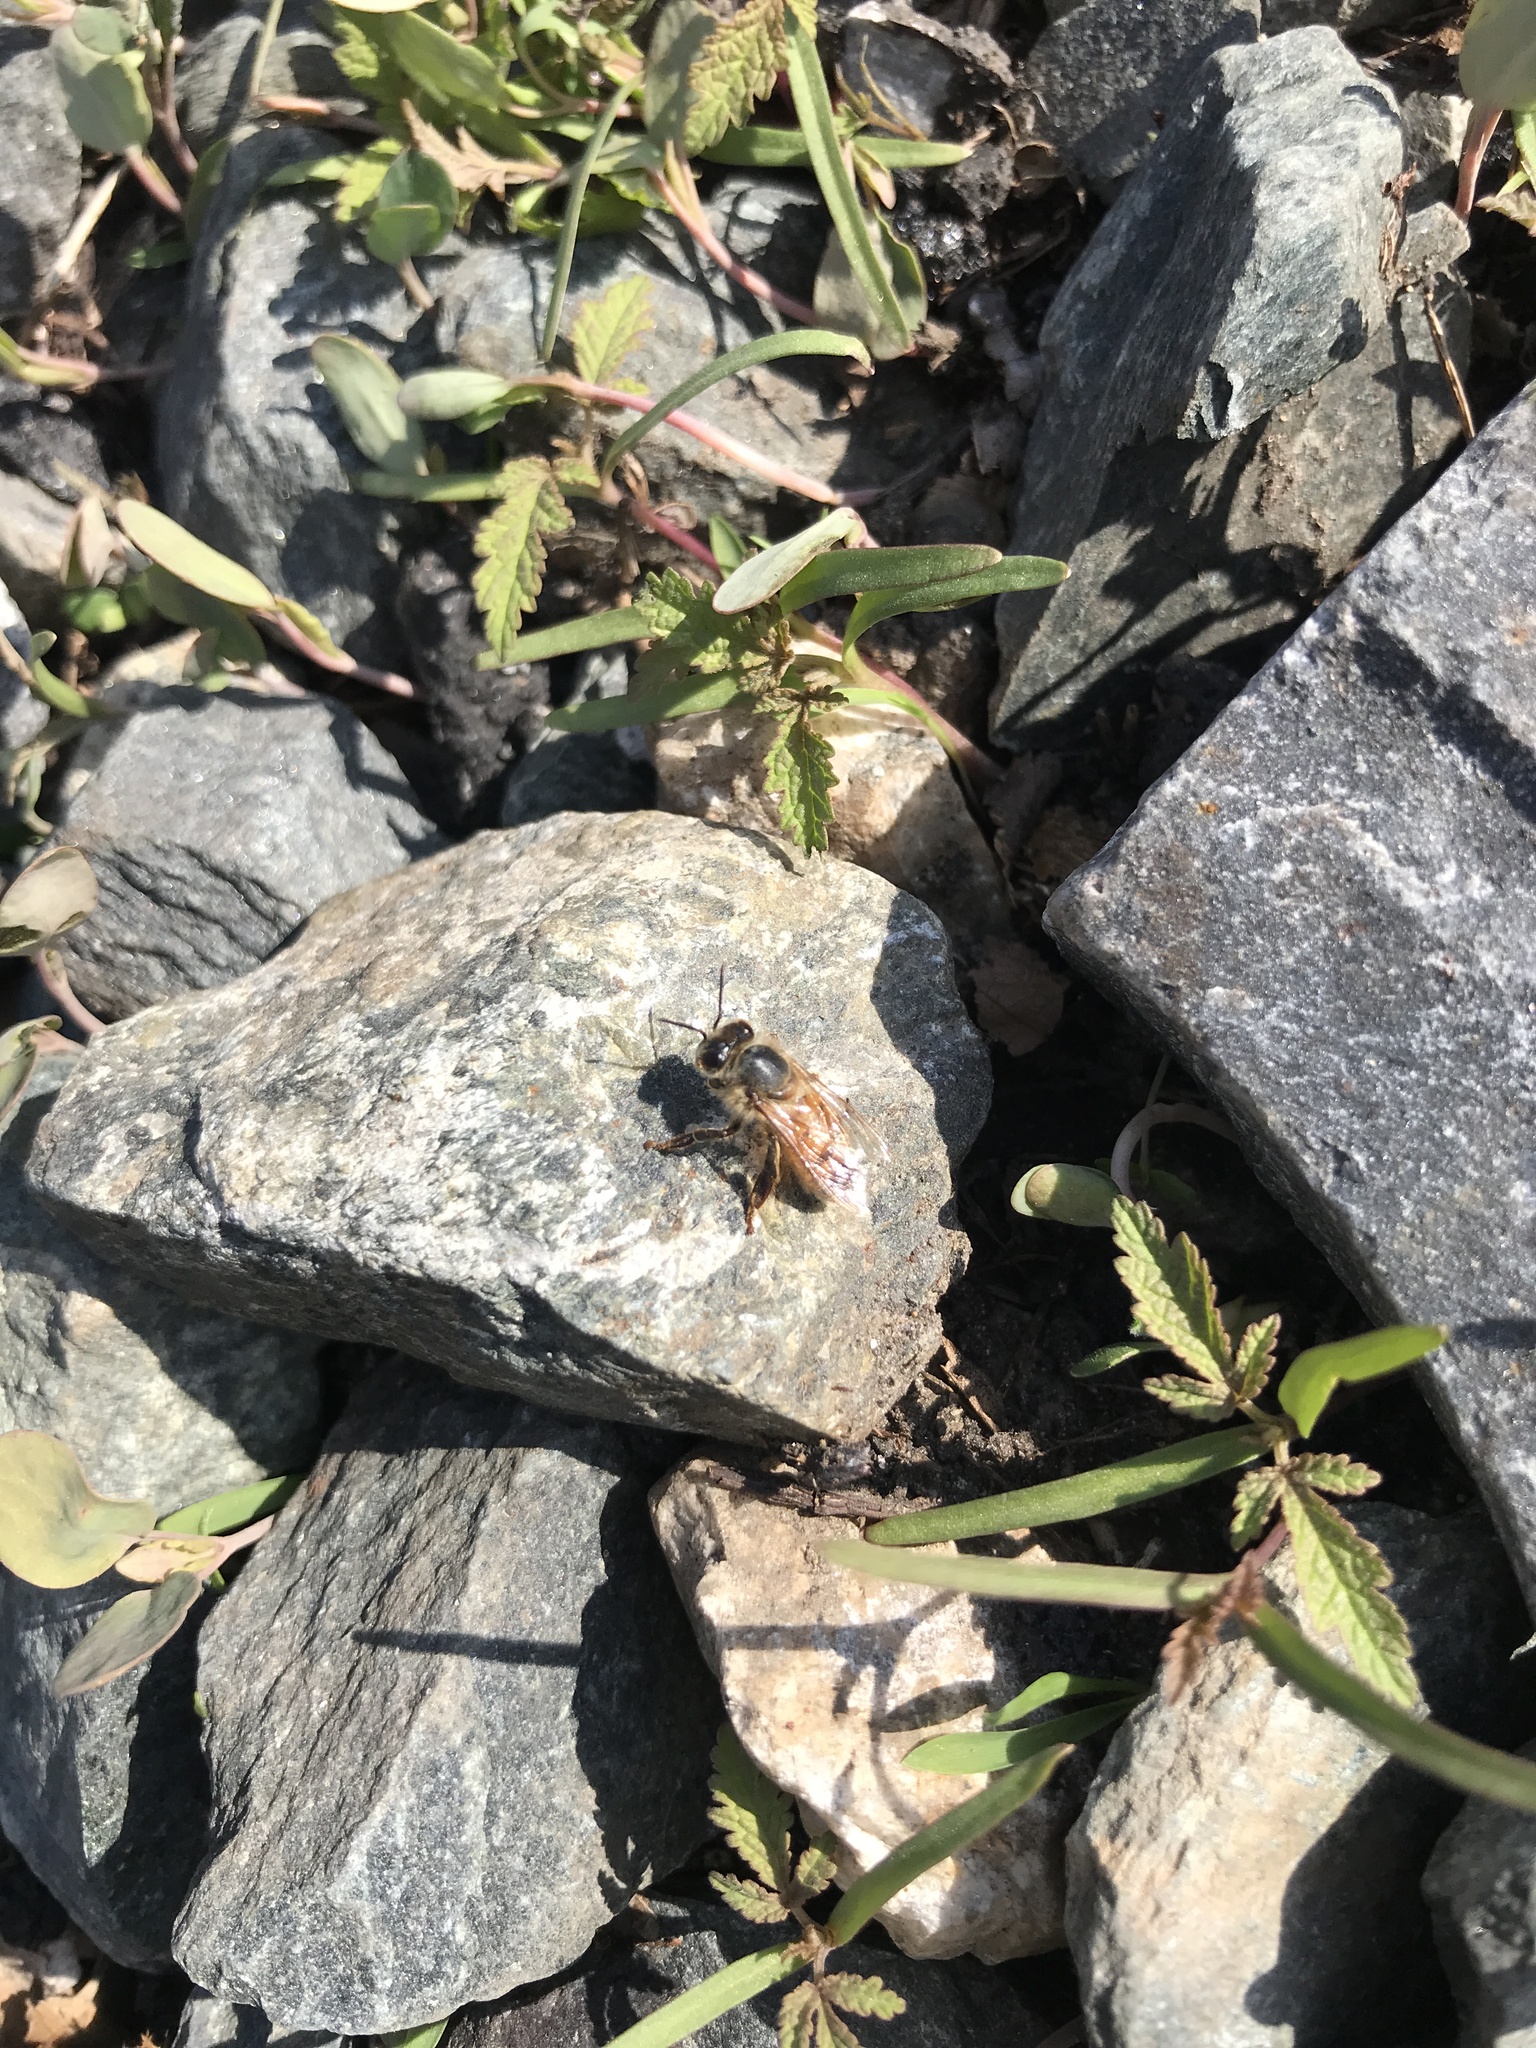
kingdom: Animalia
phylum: Arthropoda
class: Insecta
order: Hymenoptera
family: Apidae
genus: Apis
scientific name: Apis mellifera
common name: Honey bee
